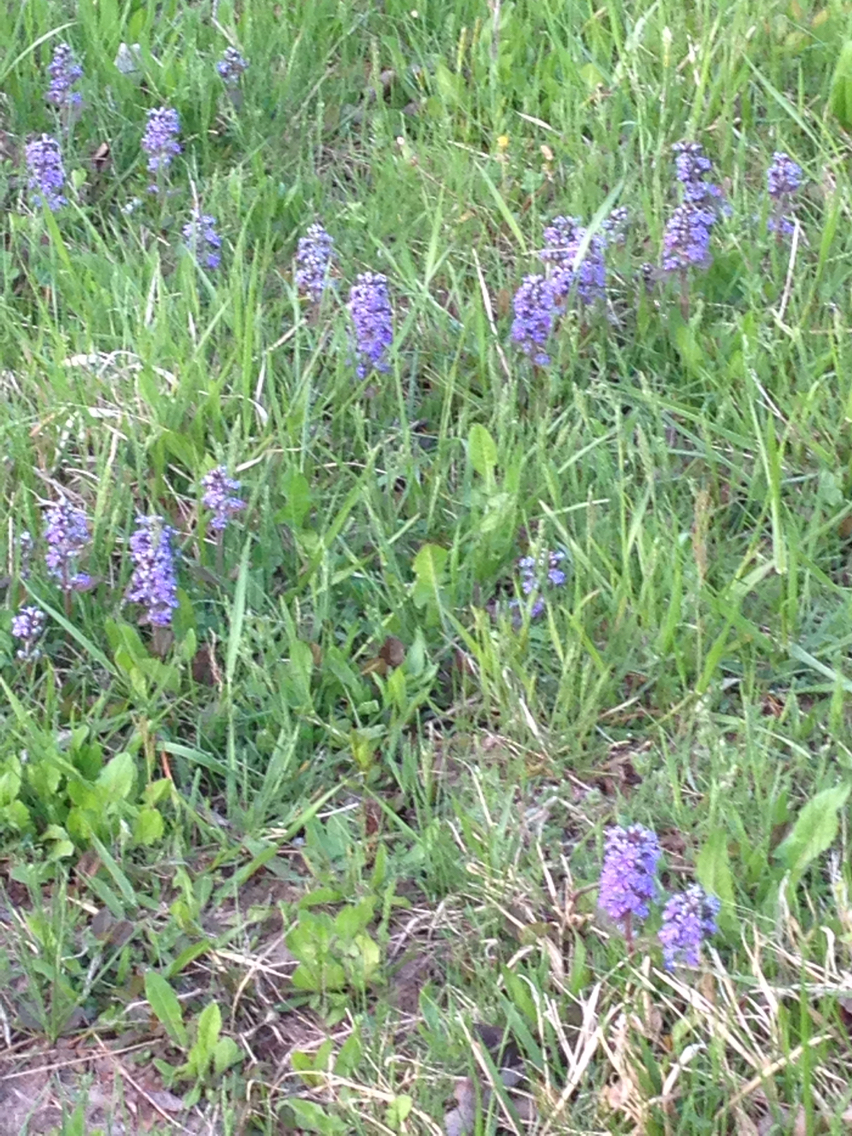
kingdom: Plantae
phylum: Tracheophyta
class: Magnoliopsida
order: Lamiales
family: Lamiaceae
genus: Ajuga
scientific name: Ajuga reptans
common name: Bugle
